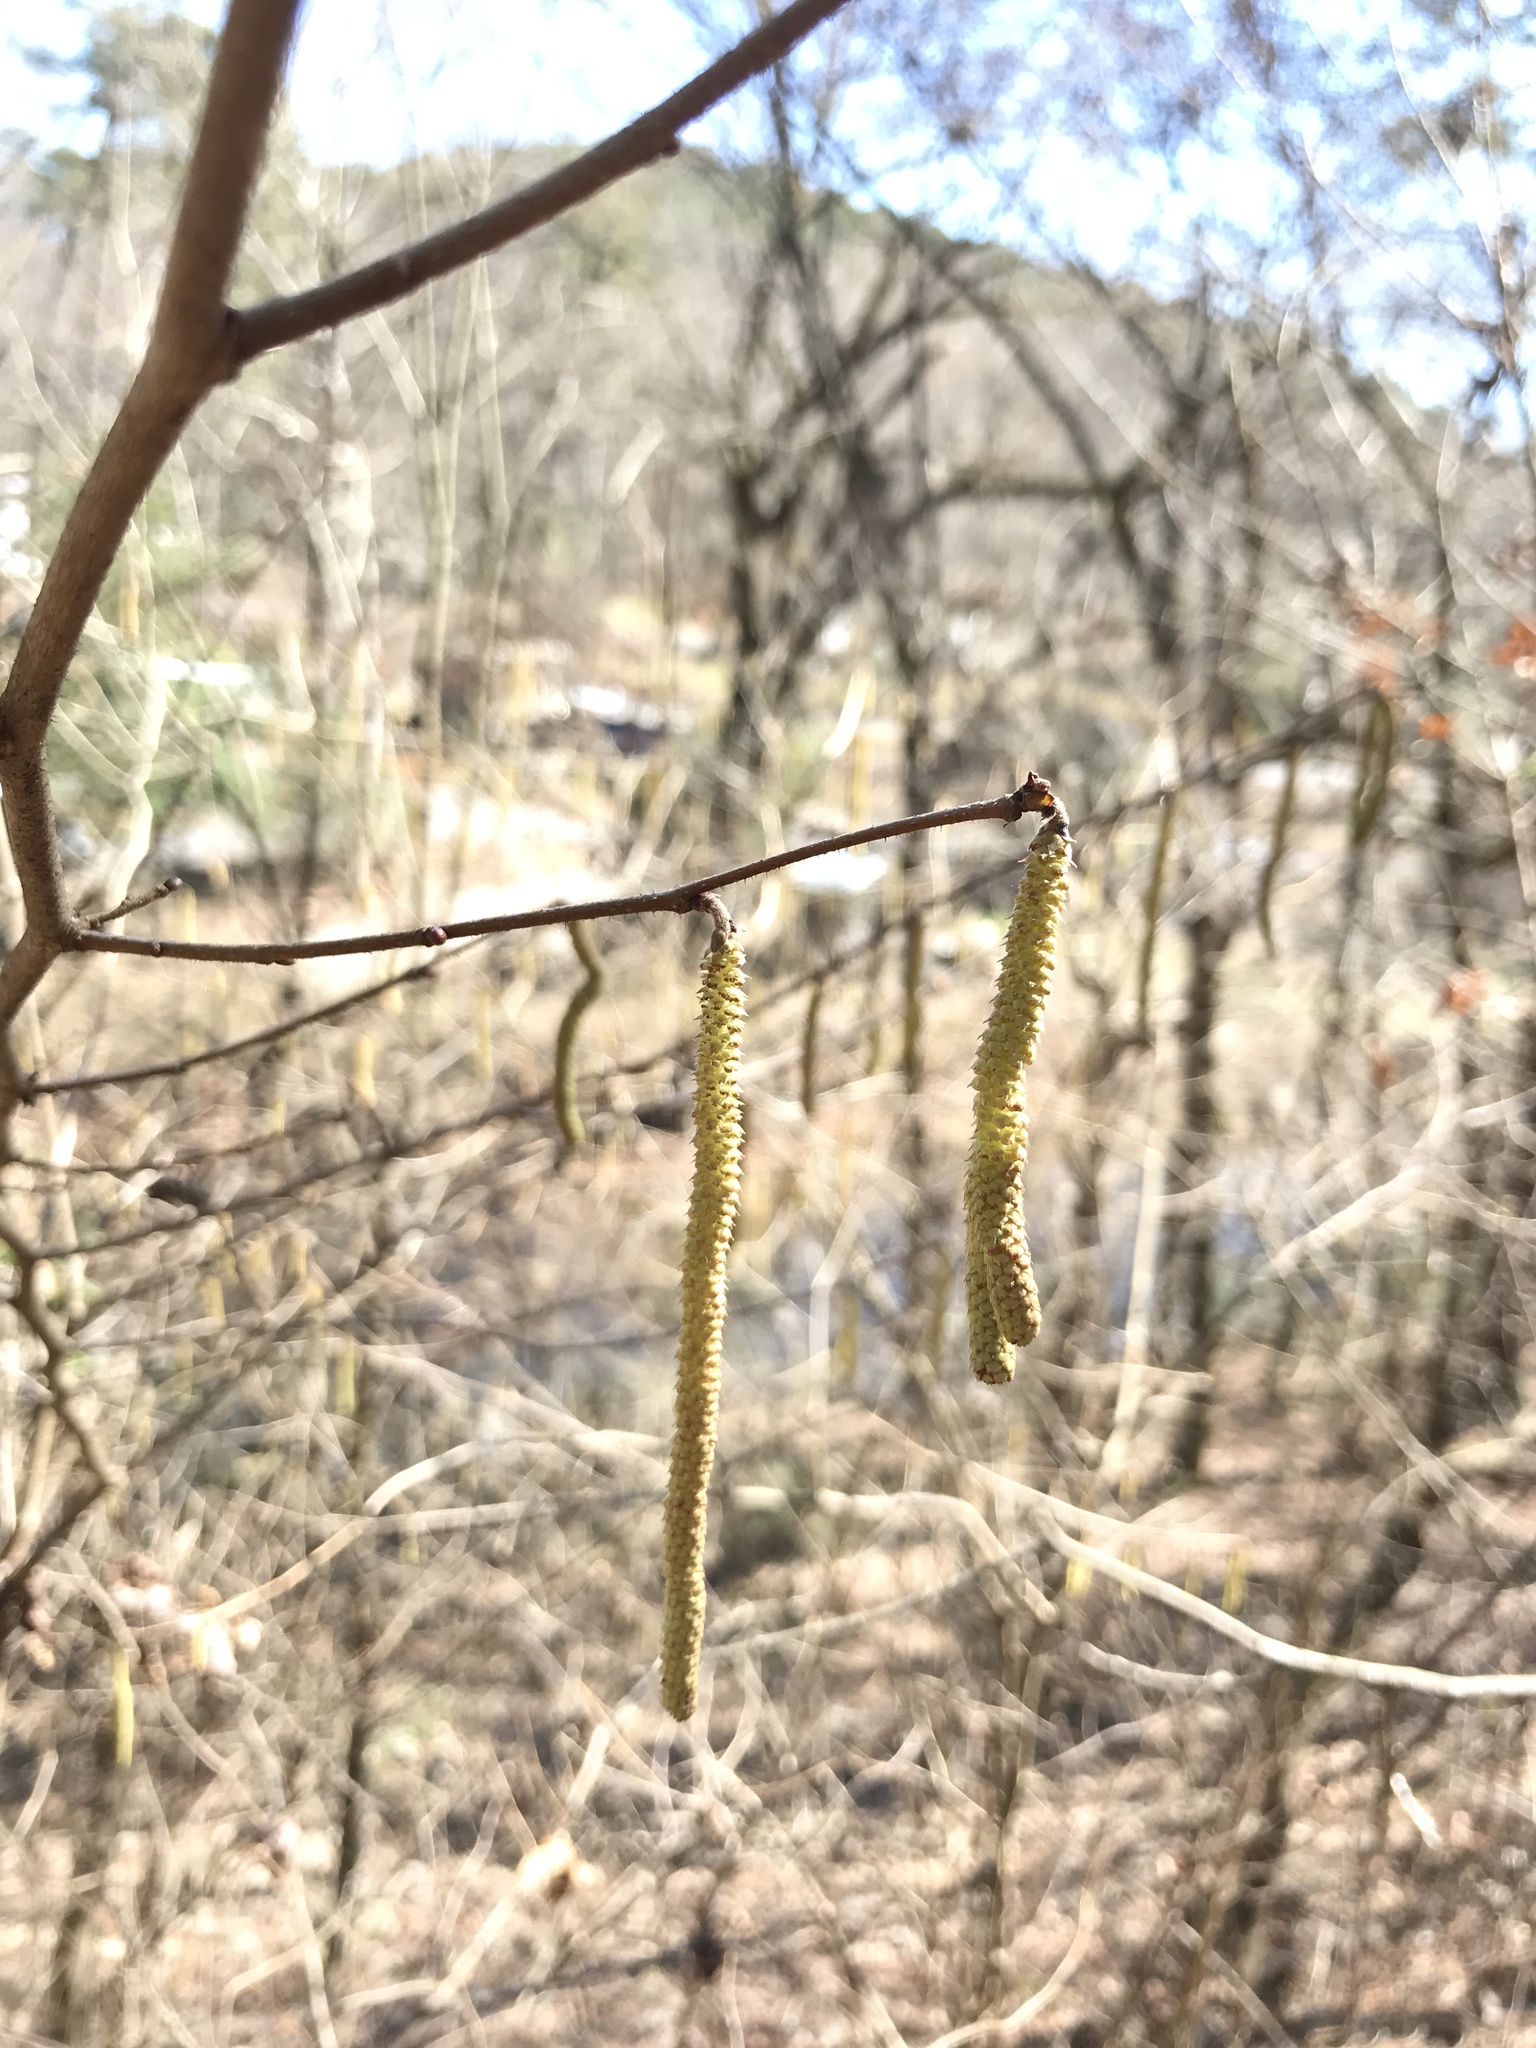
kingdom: Plantae
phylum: Tracheophyta
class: Magnoliopsida
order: Fagales
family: Betulaceae
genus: Corylus
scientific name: Corylus americana
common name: American hazel
